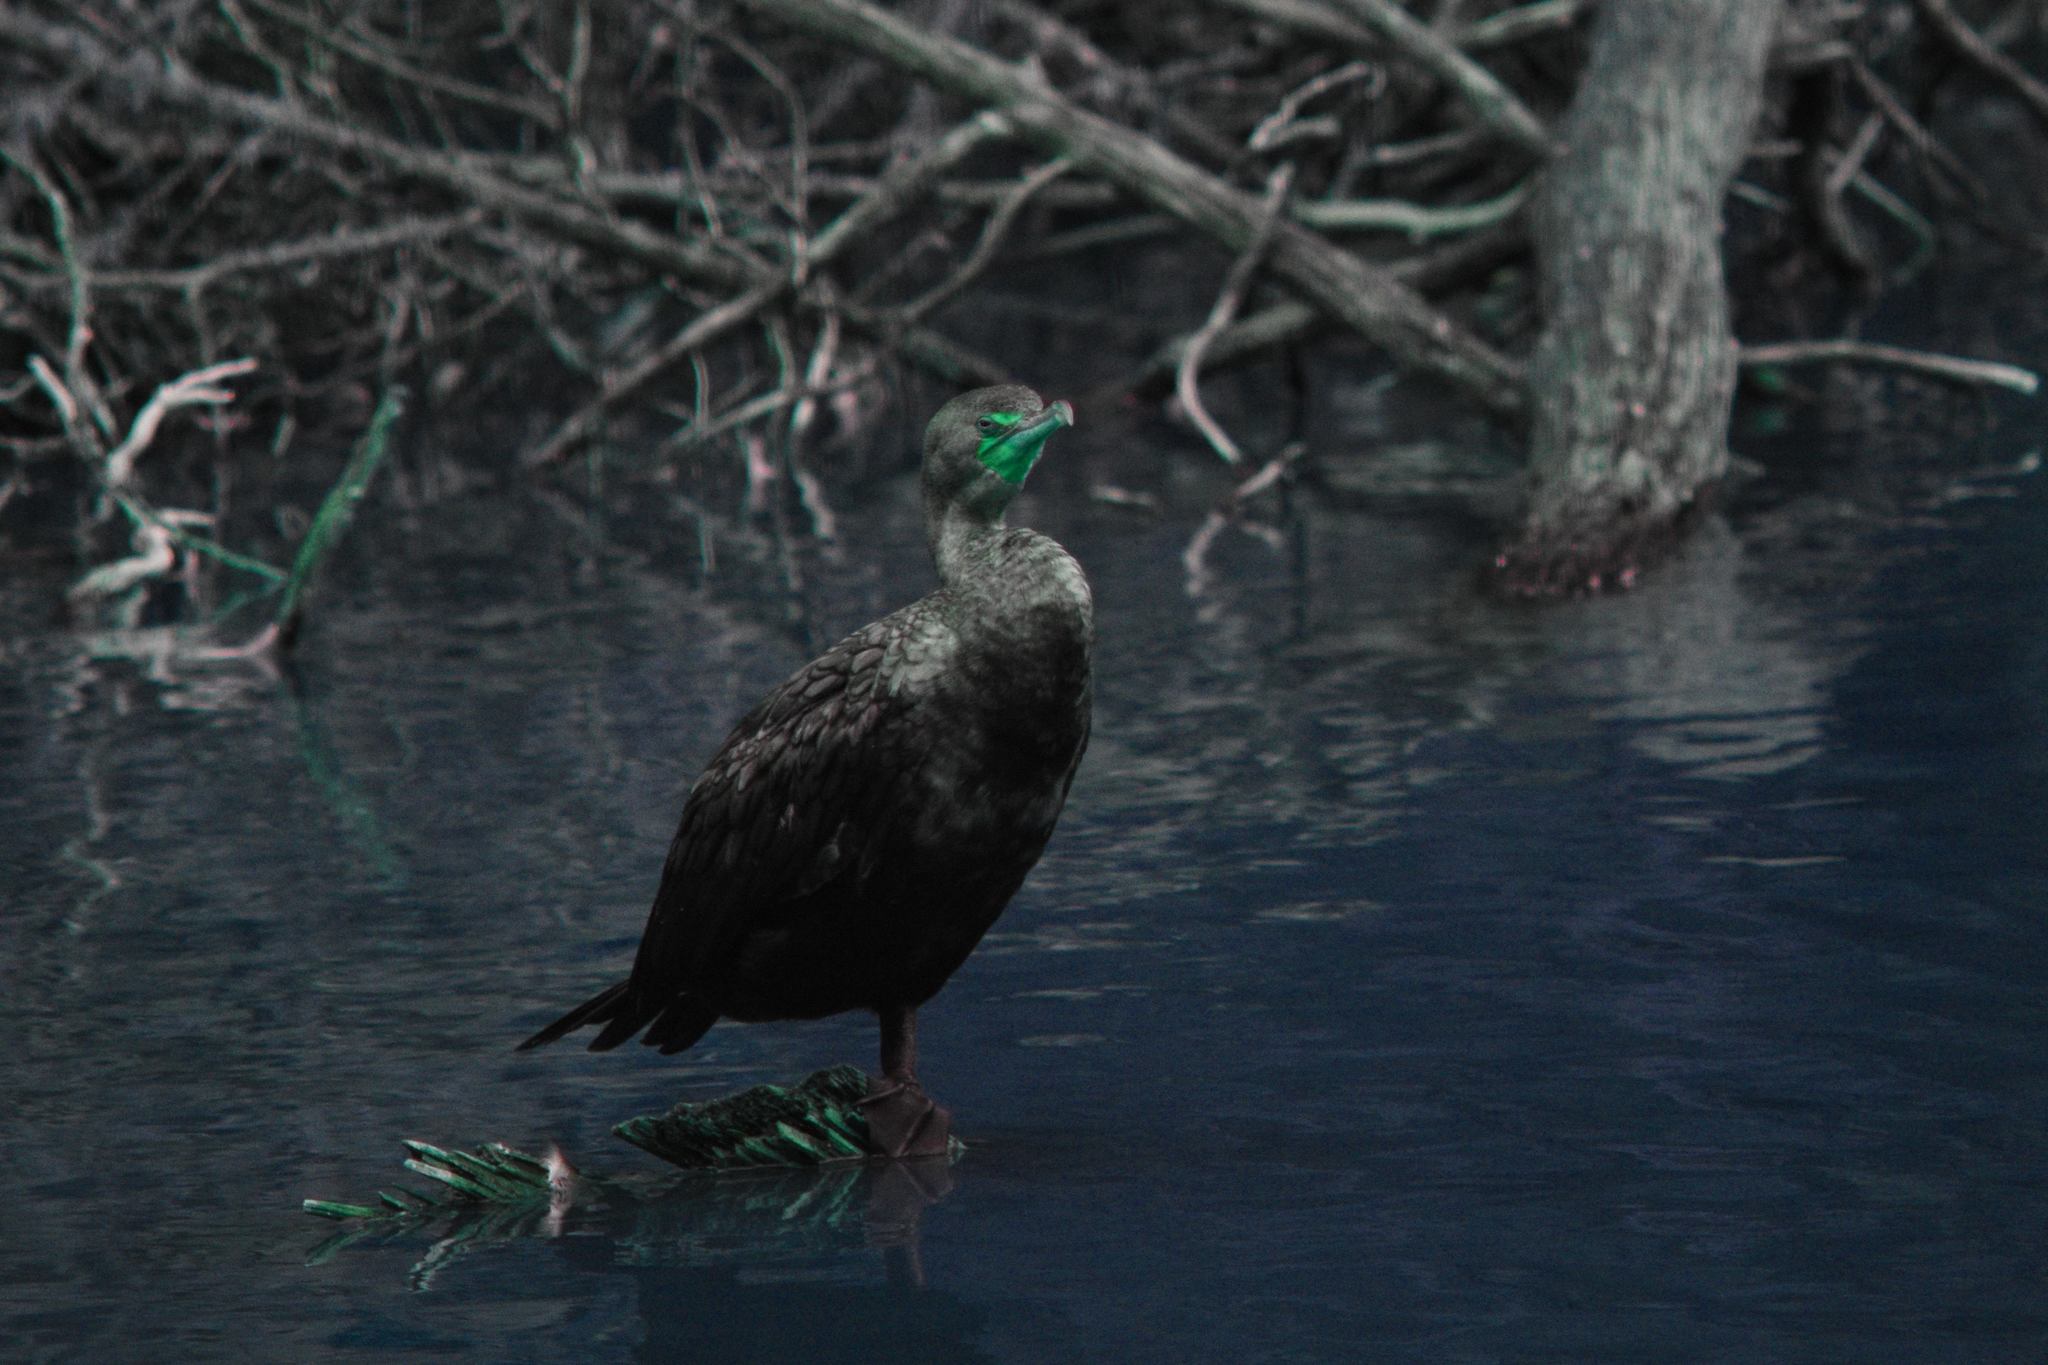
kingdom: Animalia
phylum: Chordata
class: Aves
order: Suliformes
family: Phalacrocoracidae
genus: Phalacrocorax
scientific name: Phalacrocorax auritus
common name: Double-crested cormorant
